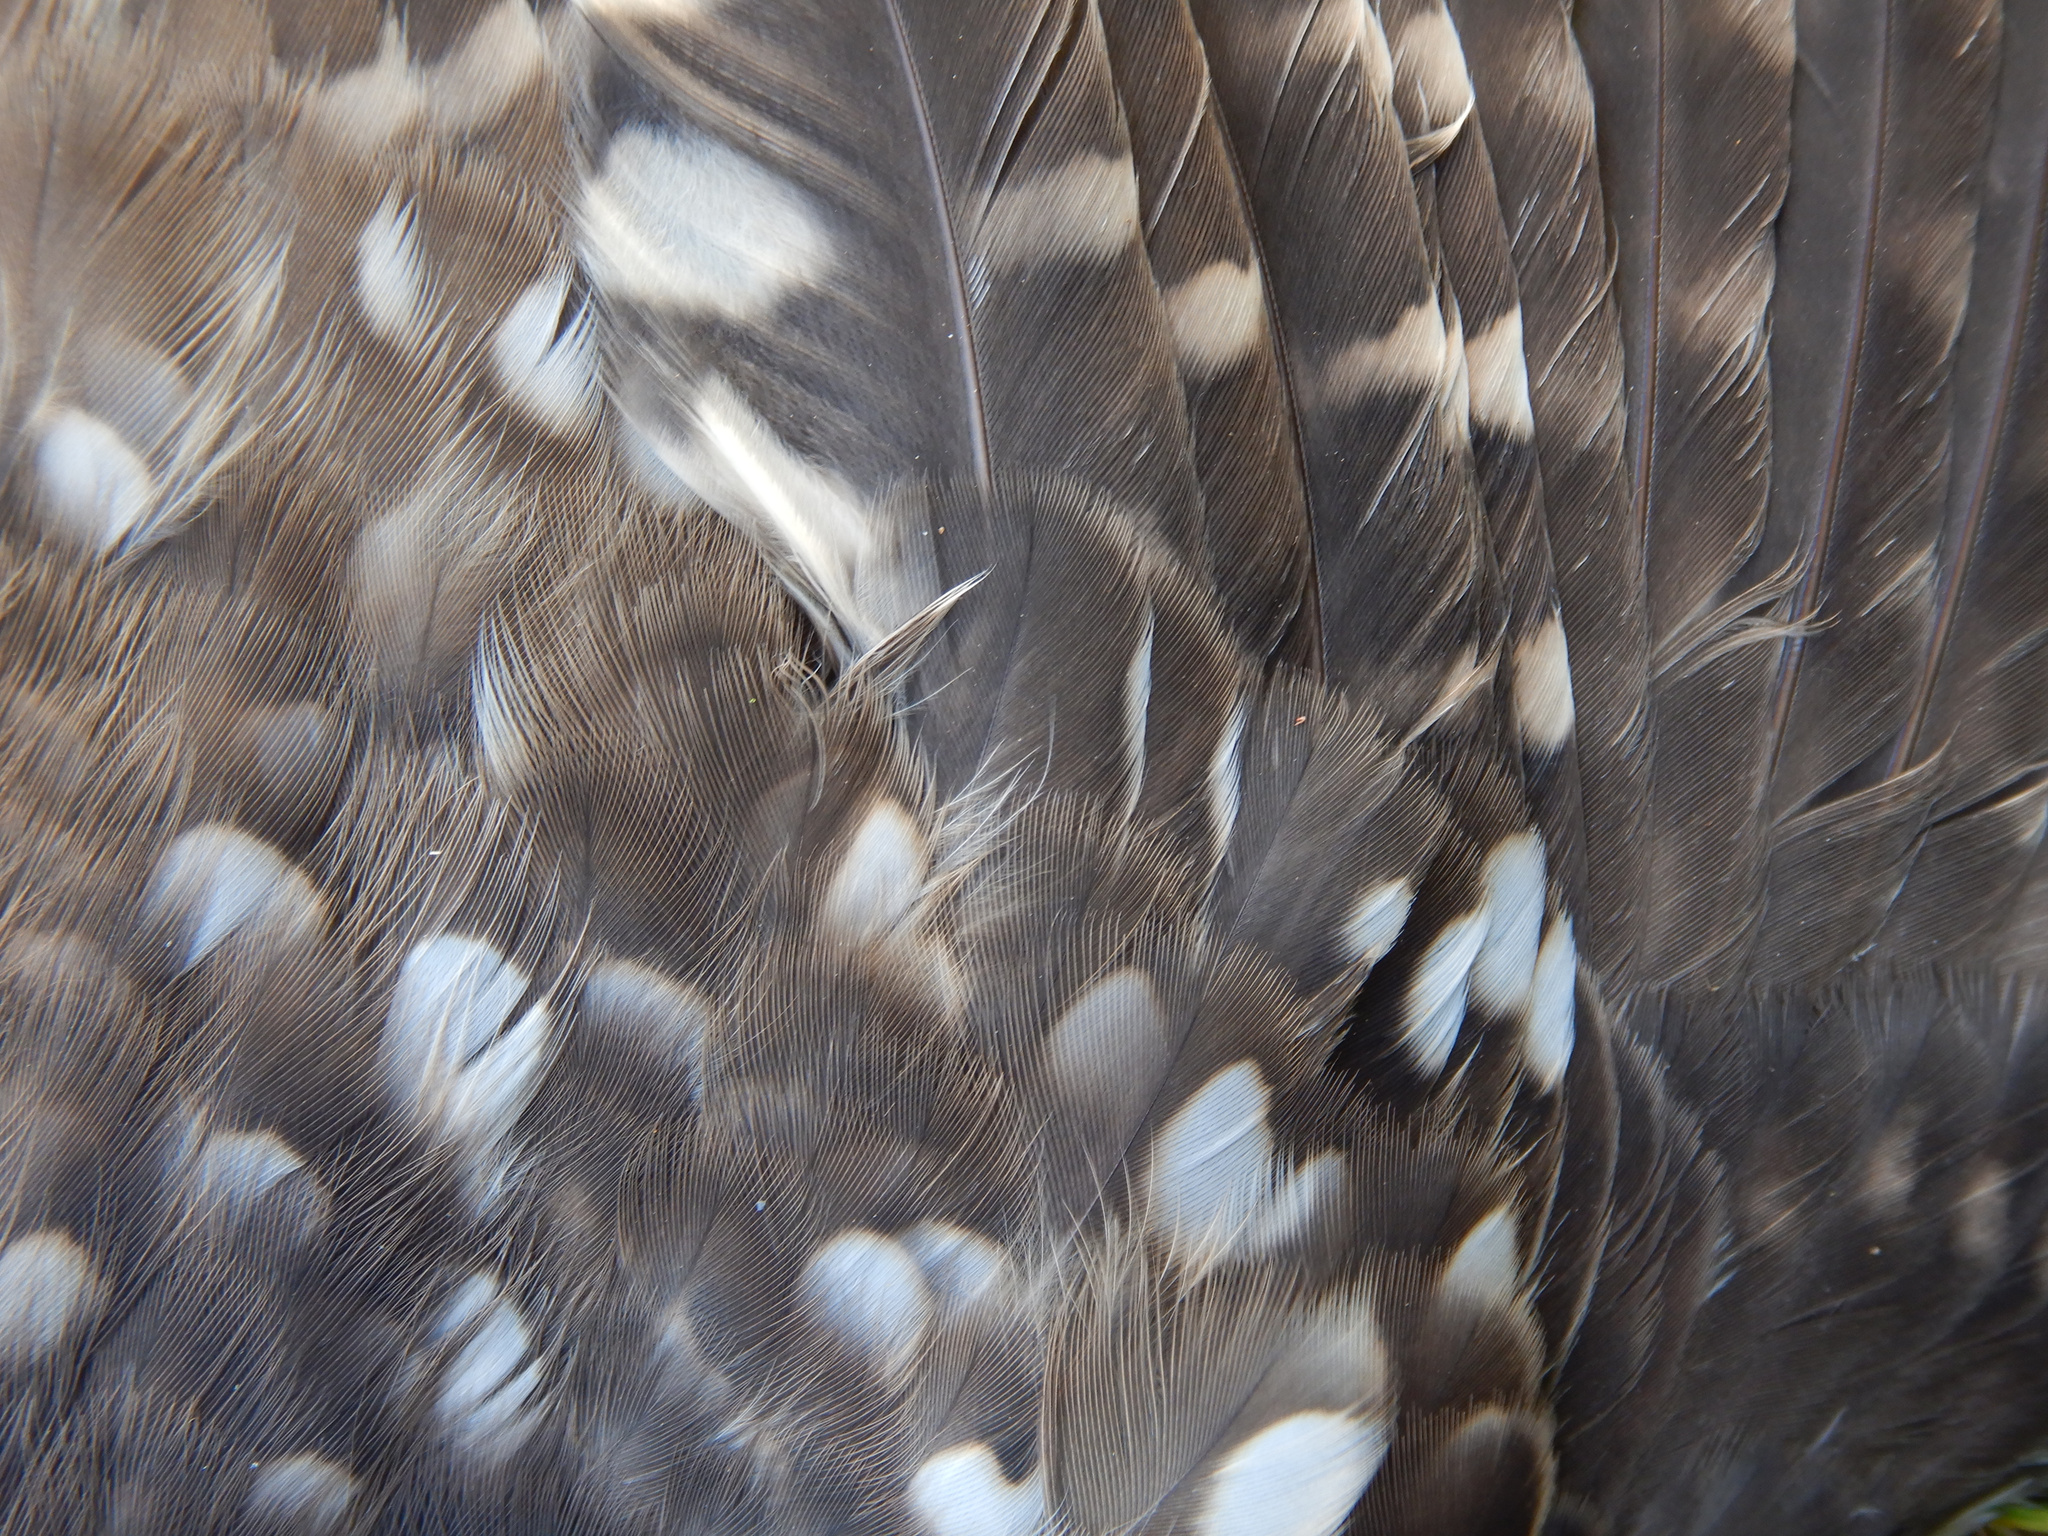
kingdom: Animalia
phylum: Chordata
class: Aves
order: Strigiformes
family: Strigidae
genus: Athene
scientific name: Athene noctua
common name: Little owl
